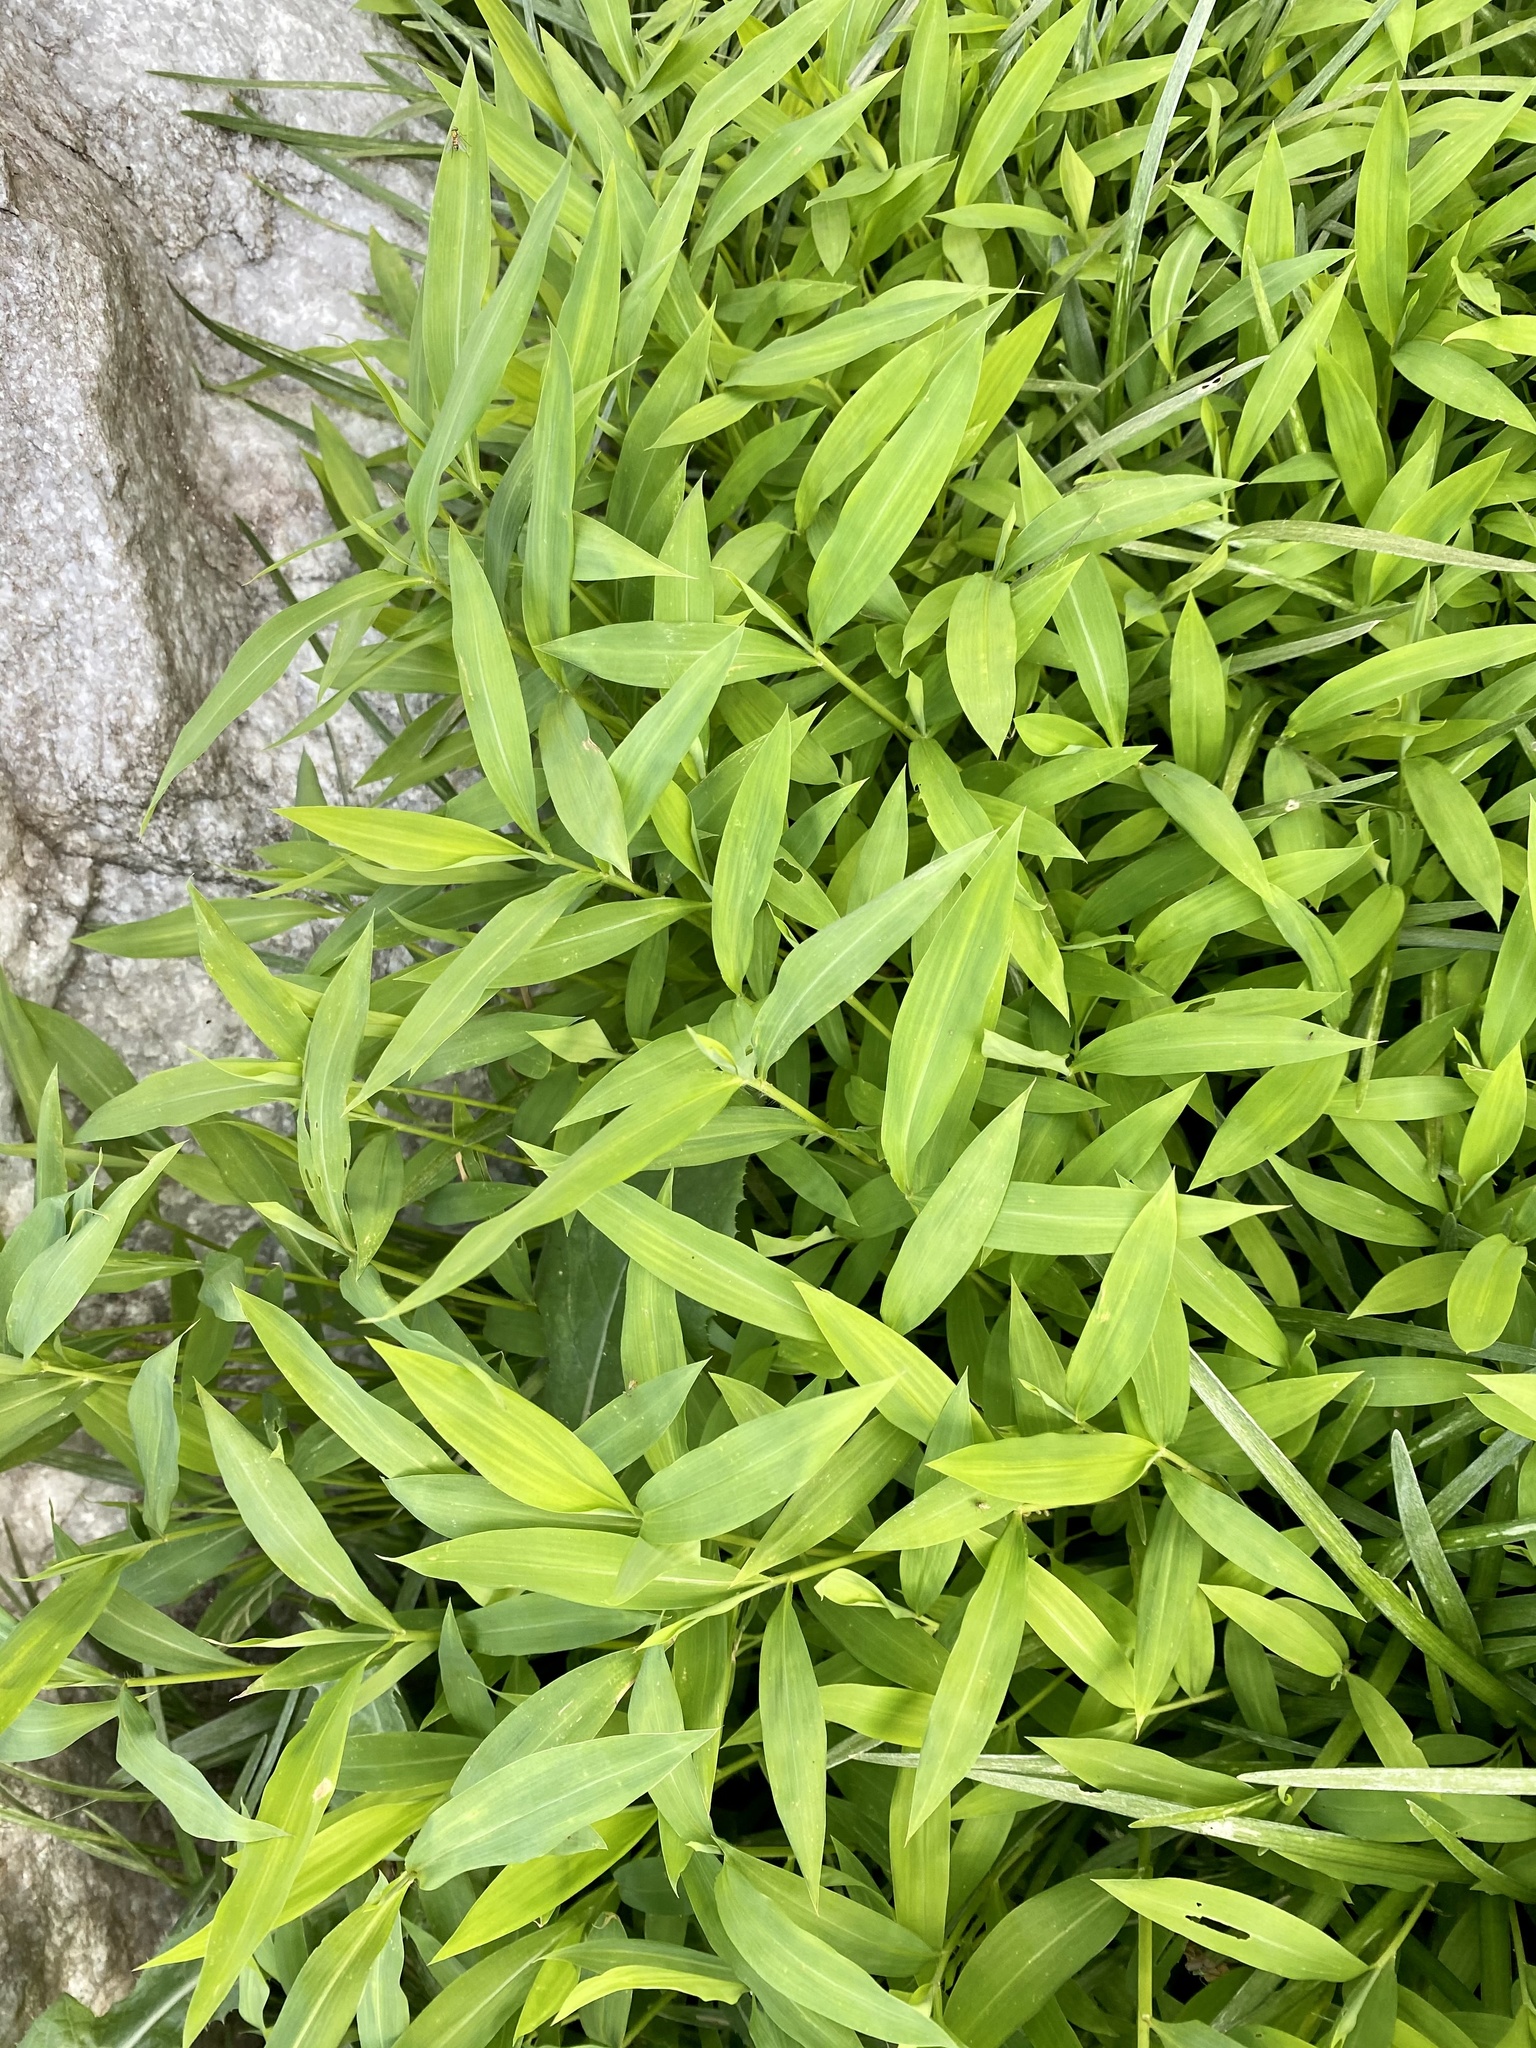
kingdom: Plantae
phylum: Tracheophyta
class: Liliopsida
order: Poales
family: Poaceae
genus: Microstegium
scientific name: Microstegium vimineum
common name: Japanese stiltgrass
